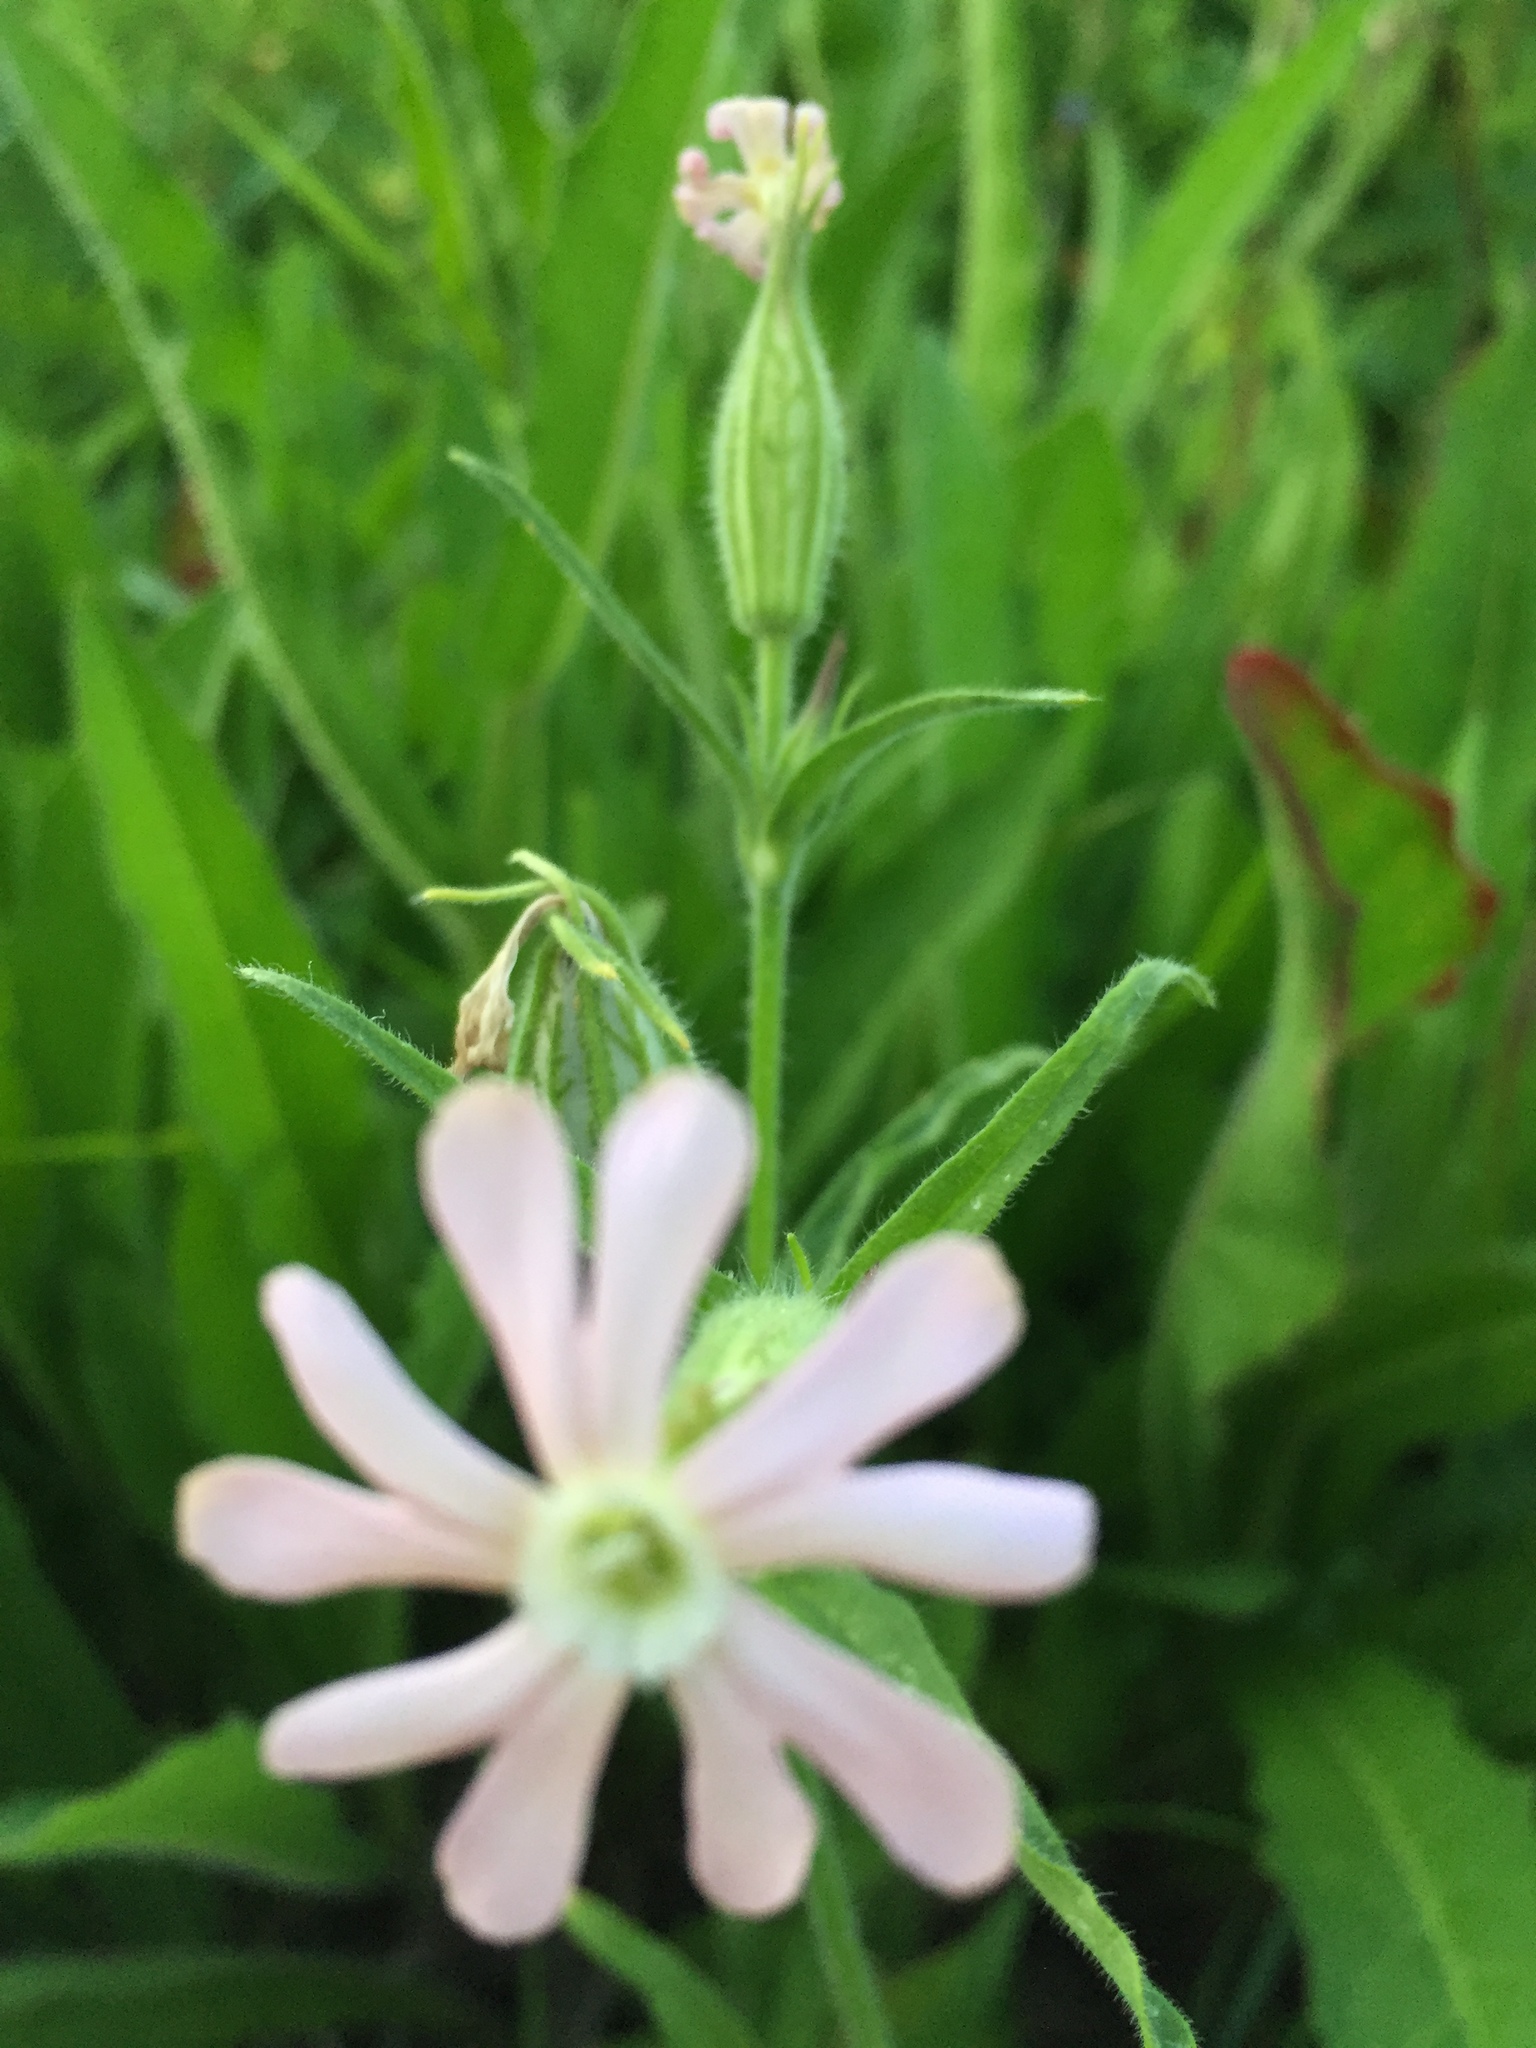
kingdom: Plantae
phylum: Tracheophyta
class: Magnoliopsida
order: Caryophyllales
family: Caryophyllaceae
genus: Silene
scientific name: Silene
